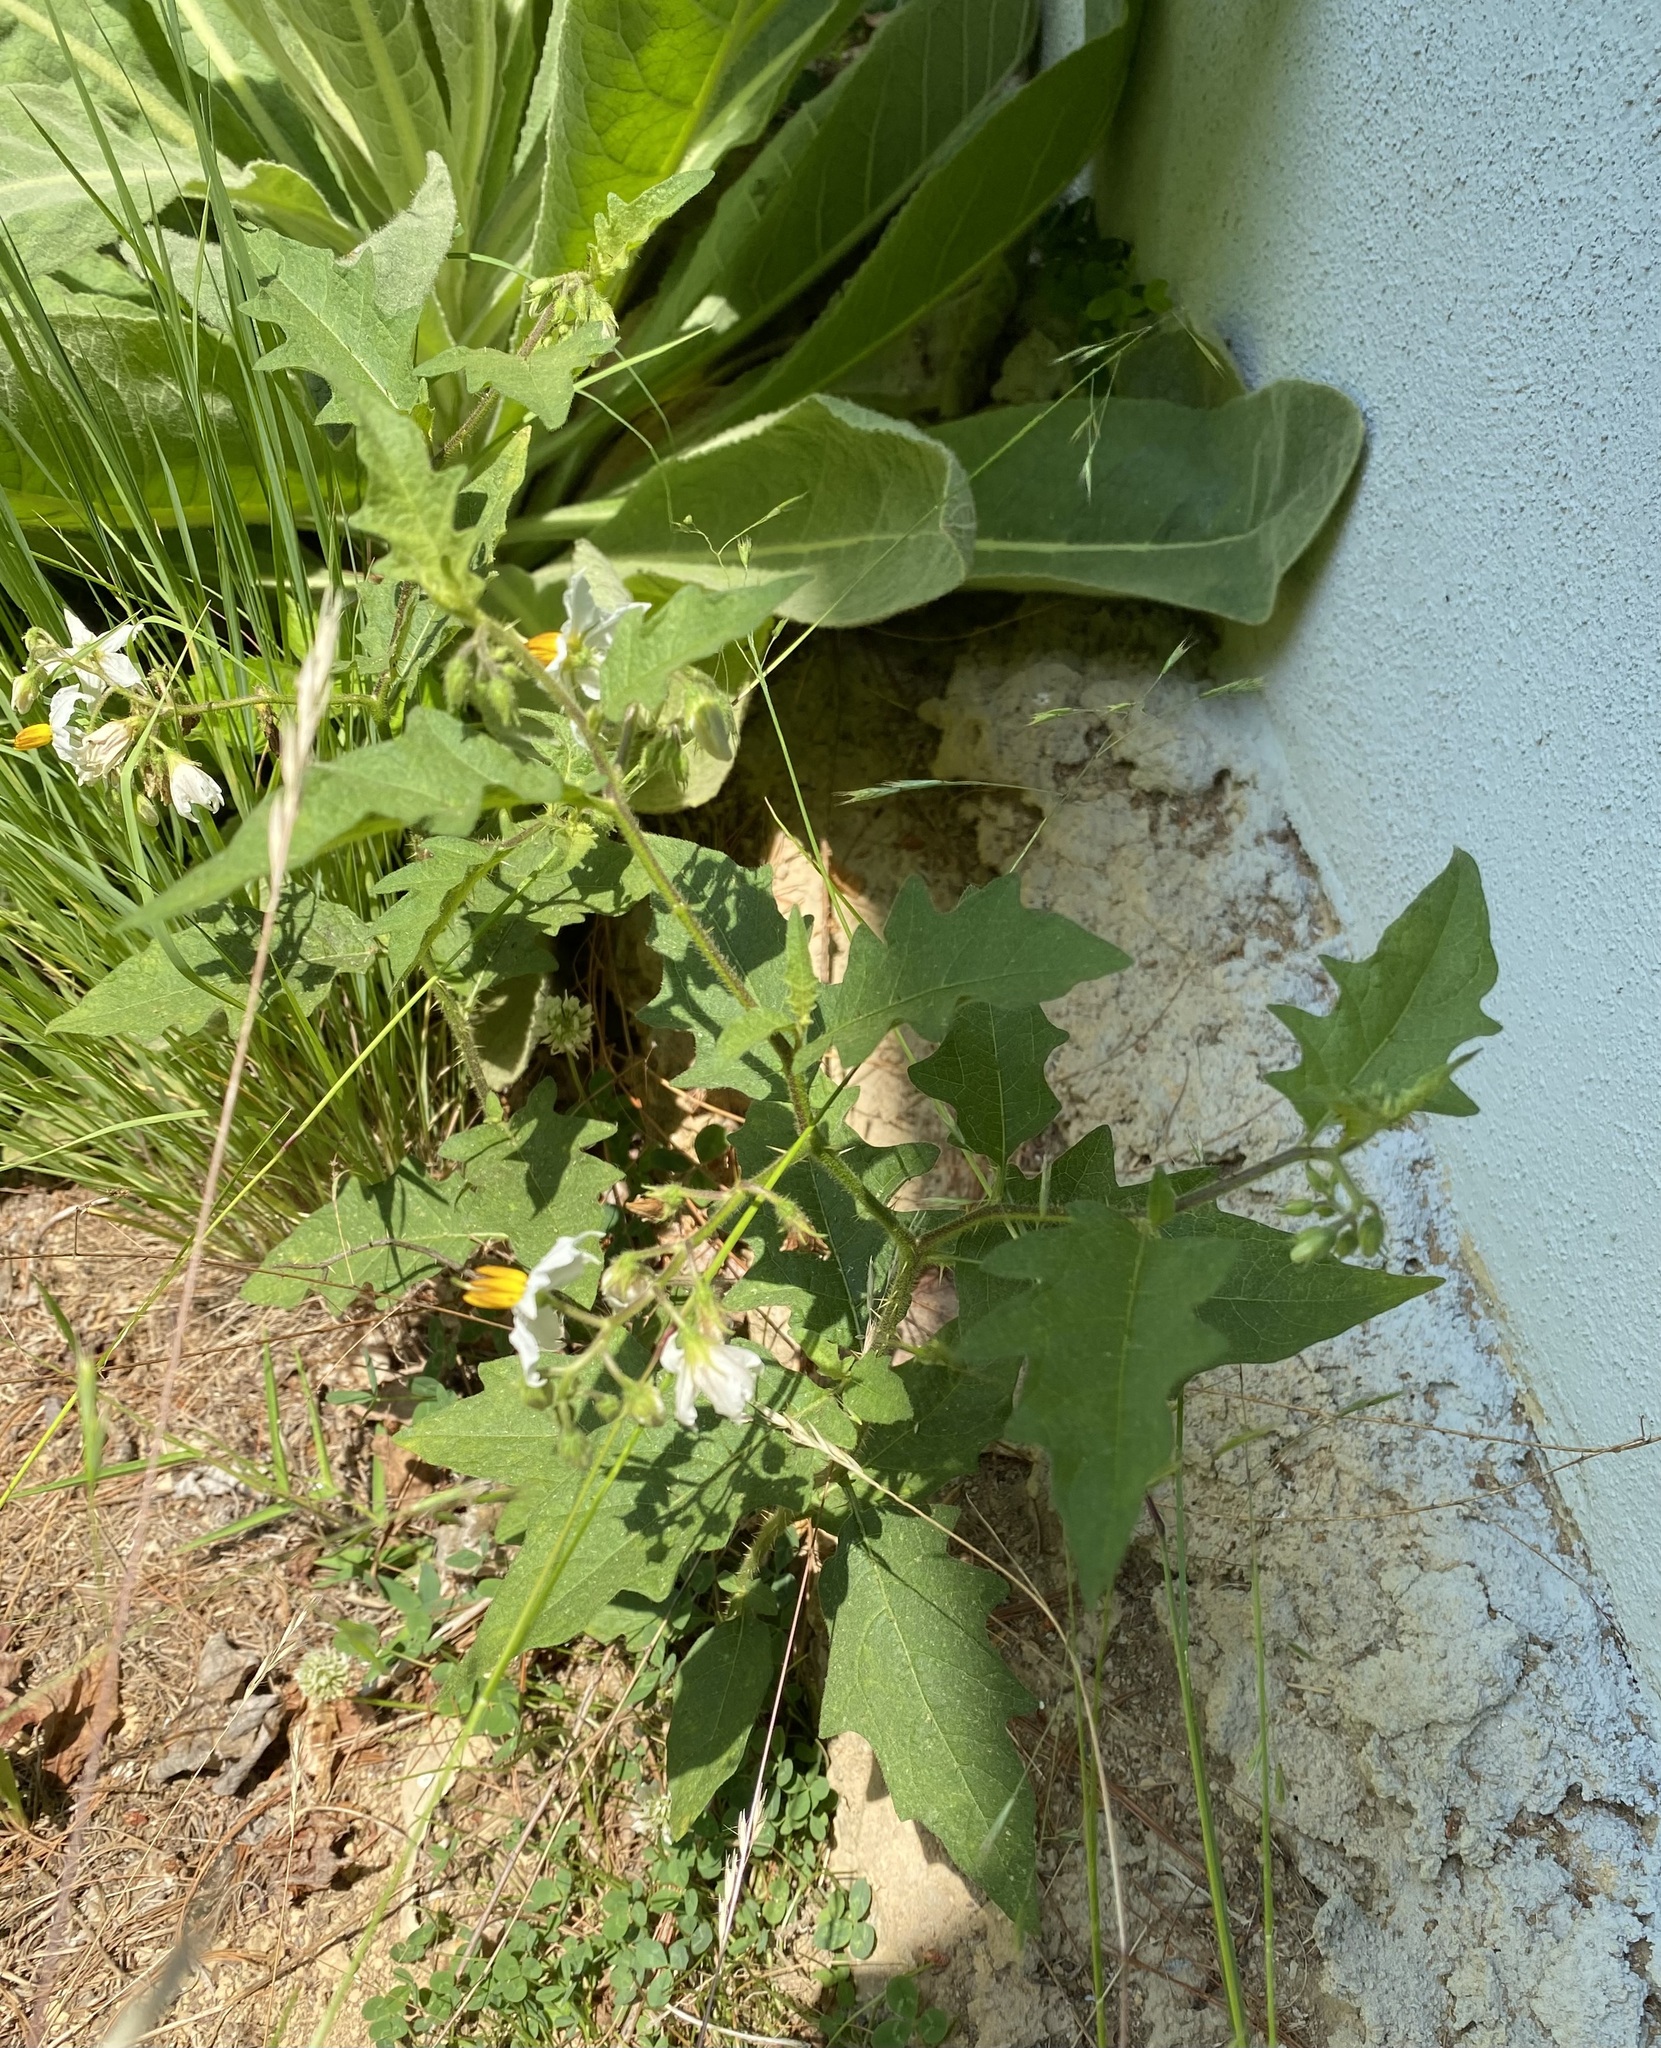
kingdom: Plantae
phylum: Tracheophyta
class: Magnoliopsida
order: Solanales
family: Solanaceae
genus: Solanum
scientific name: Solanum carolinense
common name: Horse-nettle
